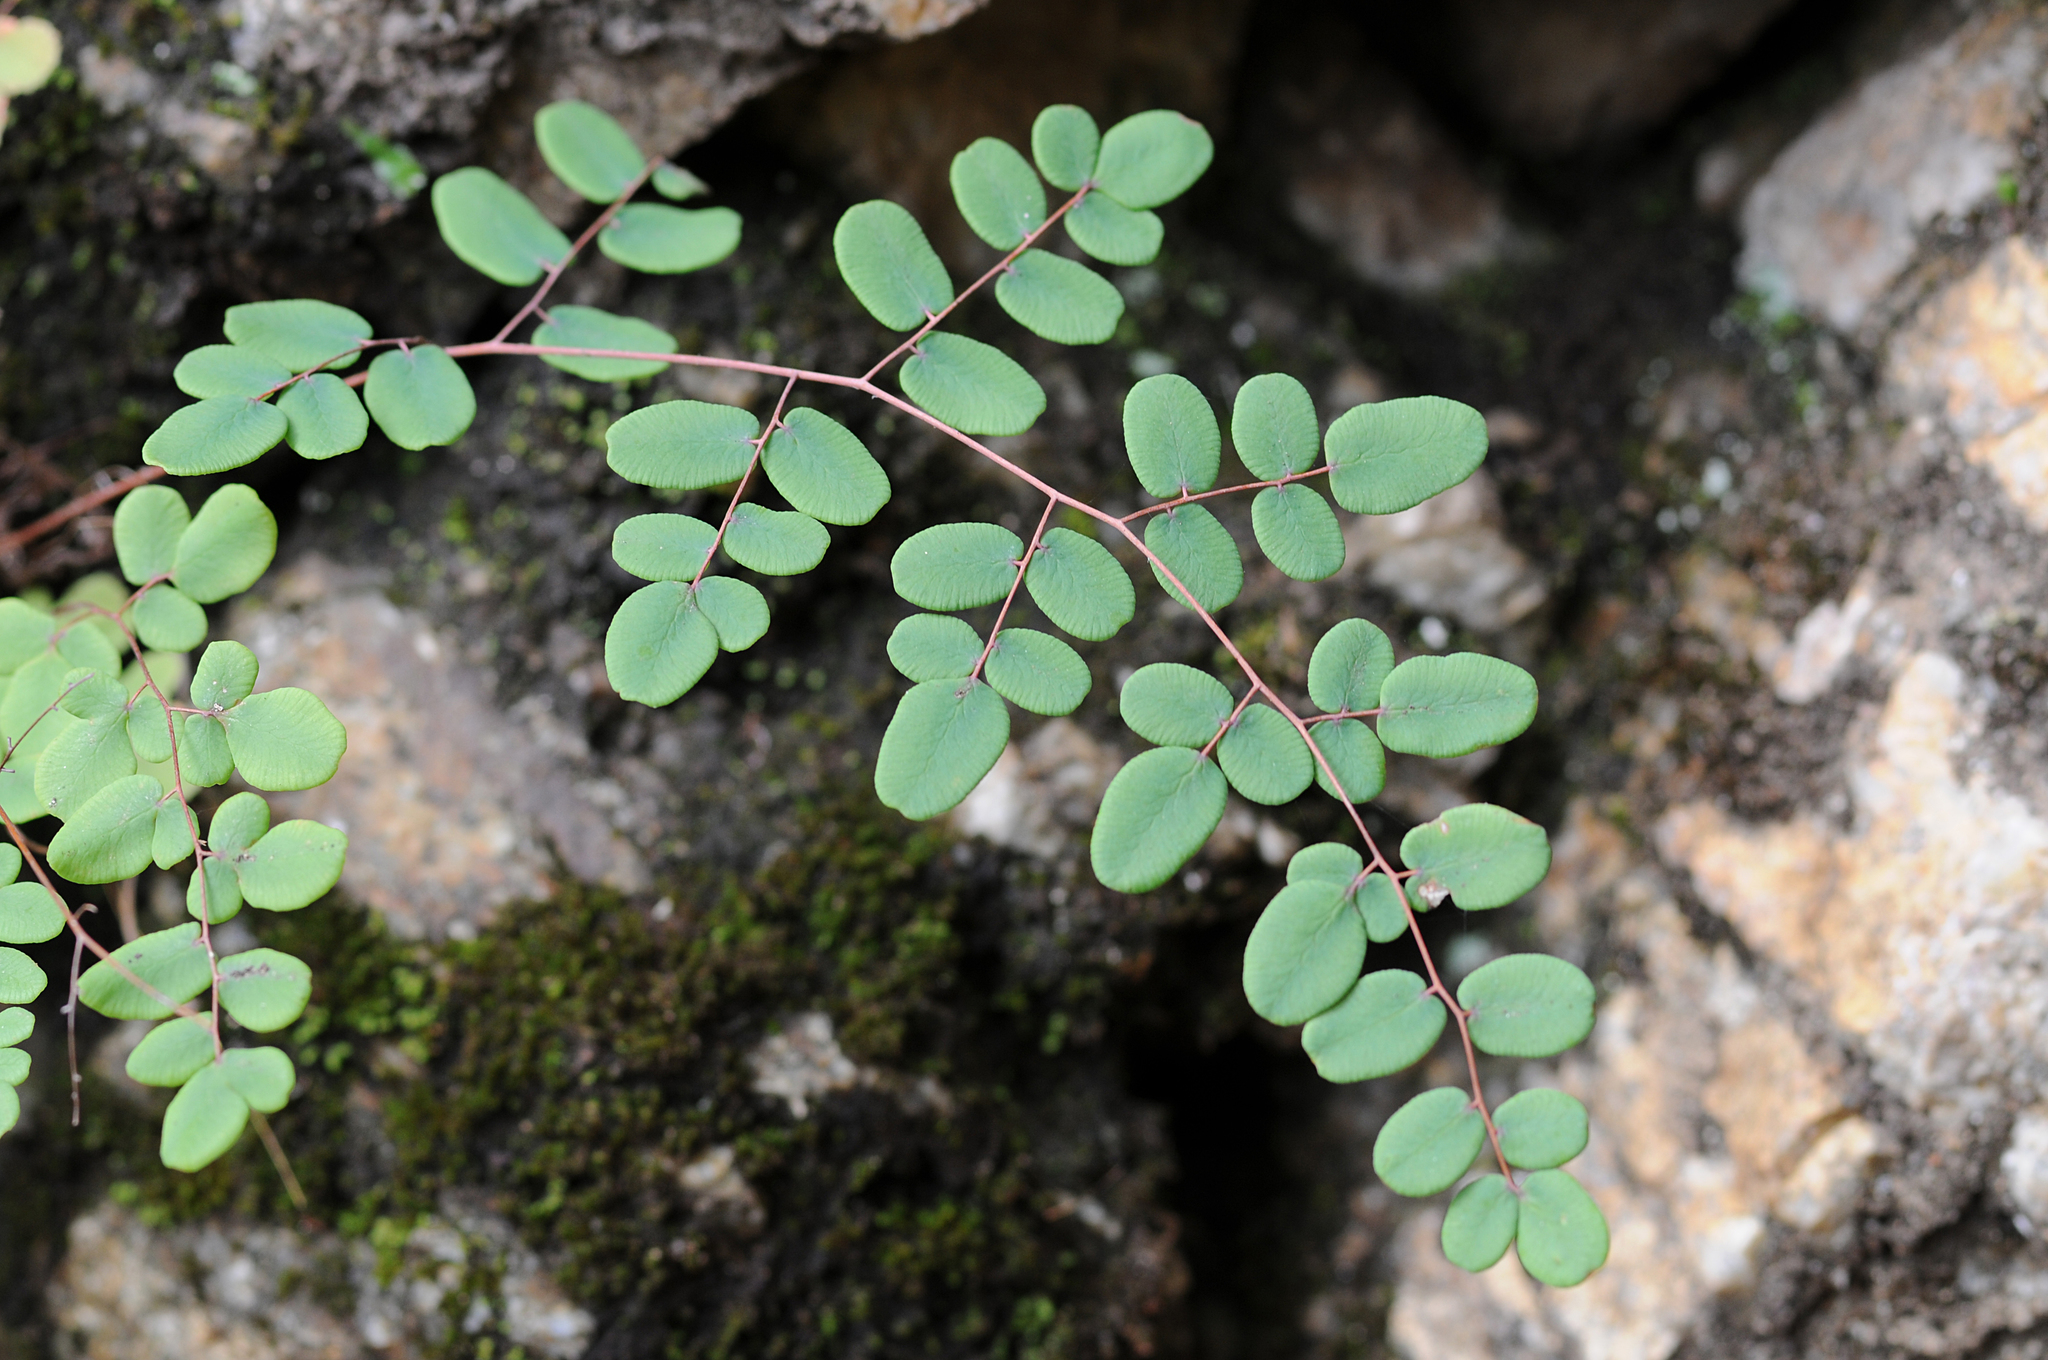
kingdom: Plantae
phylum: Tracheophyta
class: Polypodiopsida
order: Polypodiales
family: Pteridaceae
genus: Pellaea
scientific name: Pellaea andromedifolia
